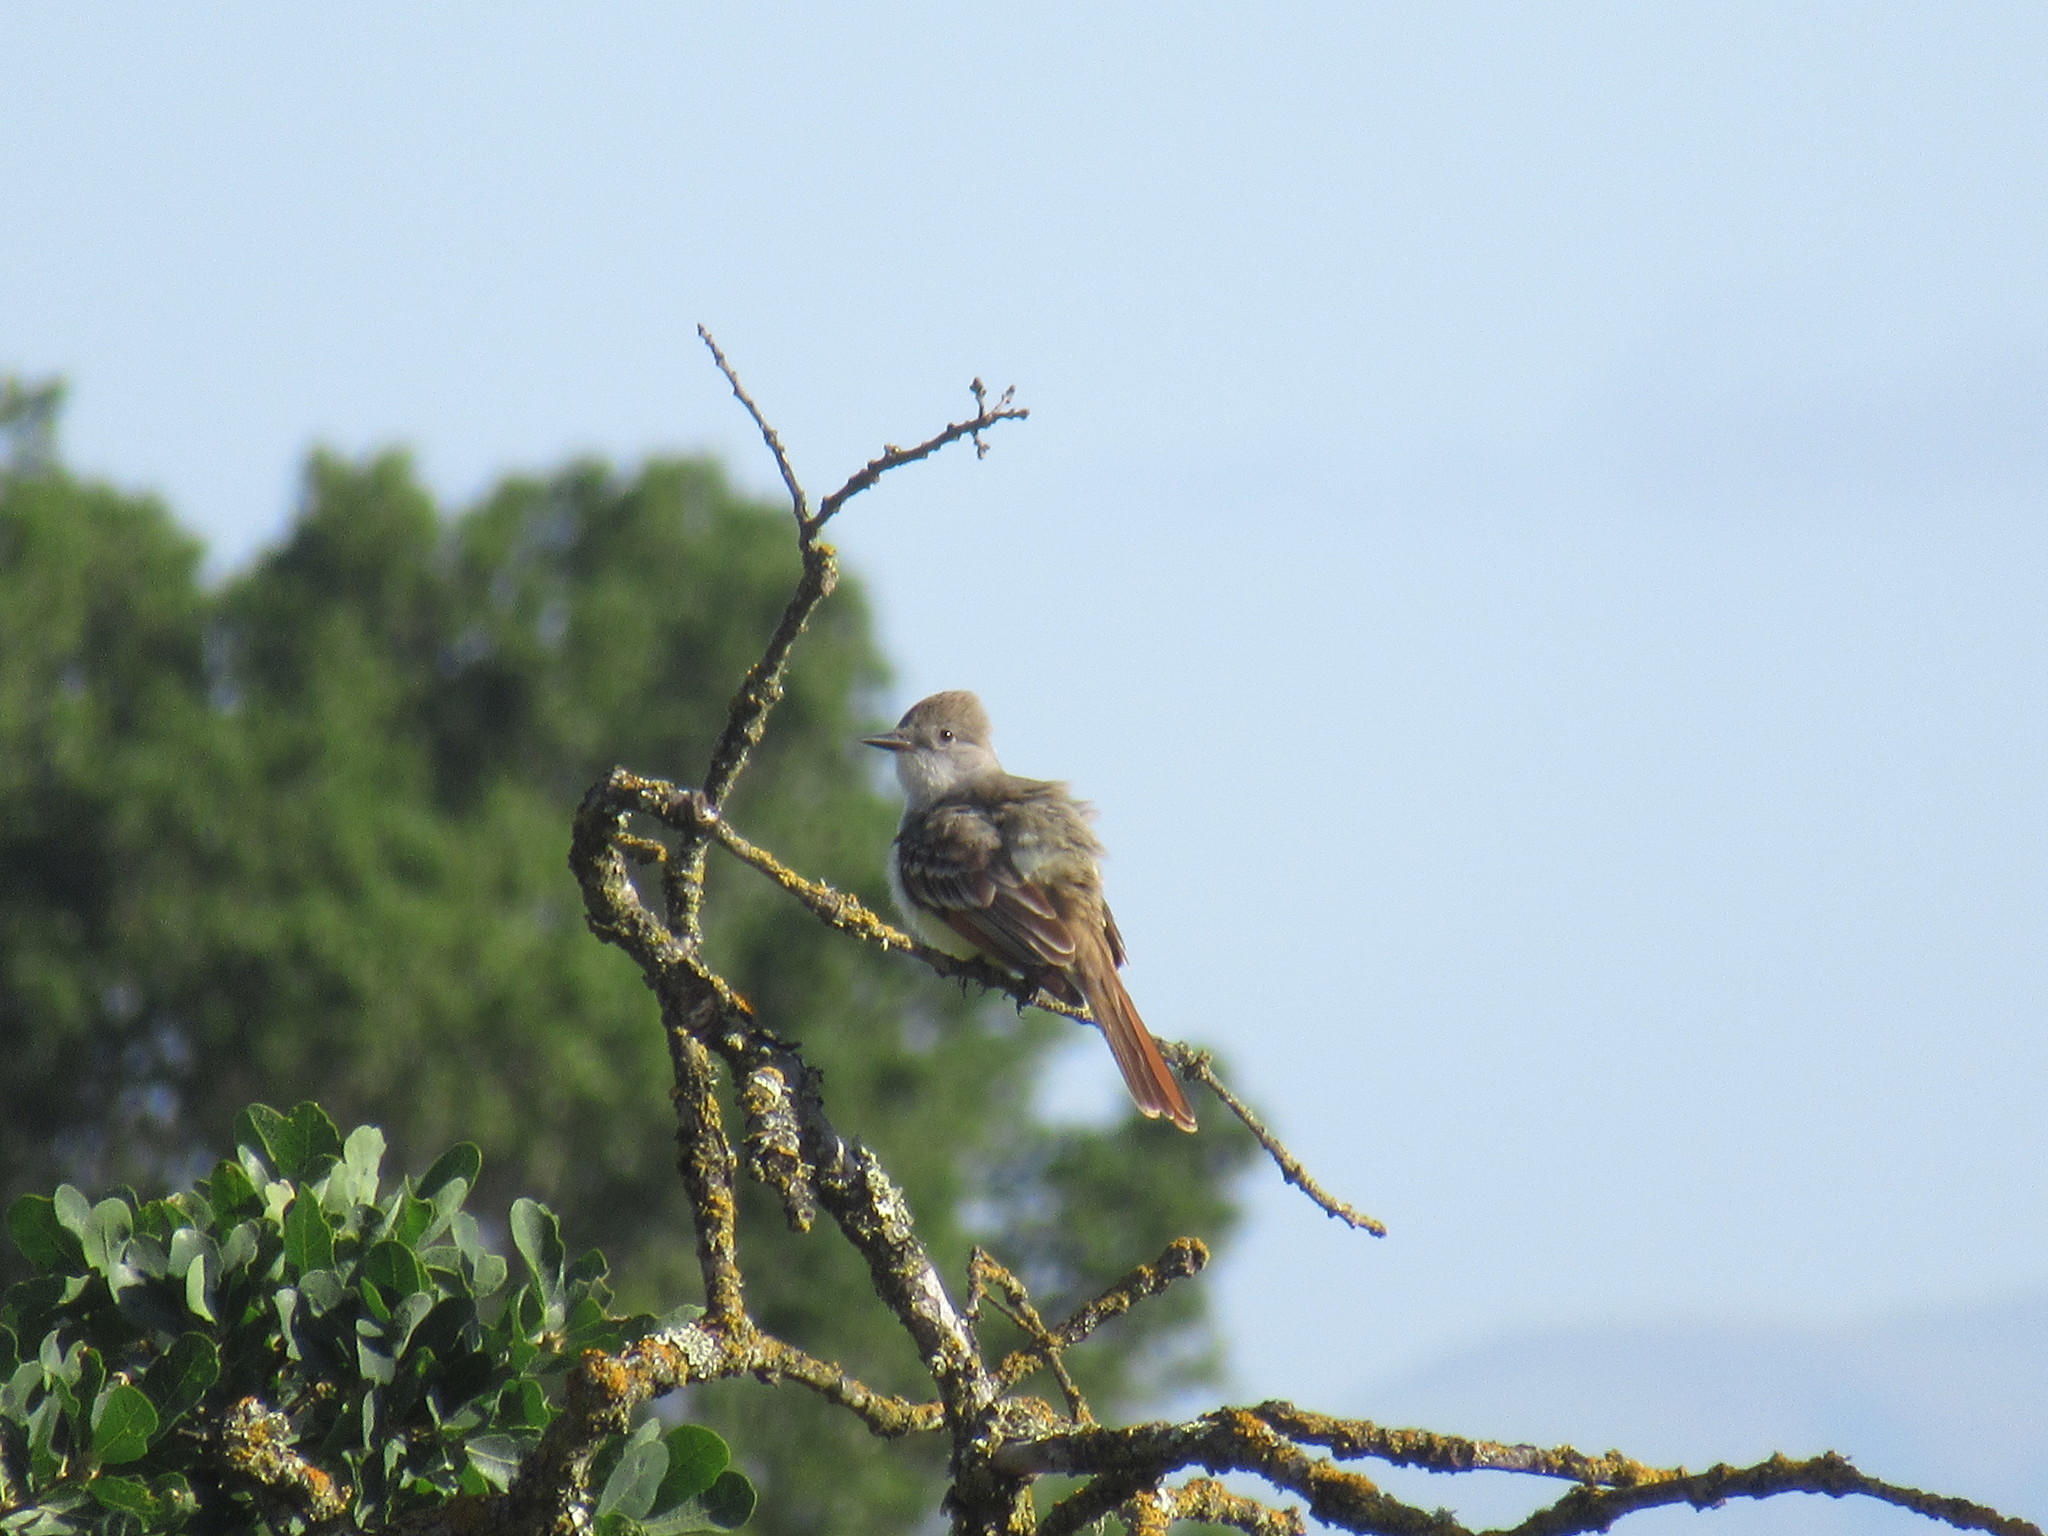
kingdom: Animalia
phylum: Chordata
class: Aves
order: Passeriformes
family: Tyrannidae
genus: Myiarchus
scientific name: Myiarchus cinerascens
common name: Ash-throated flycatcher
